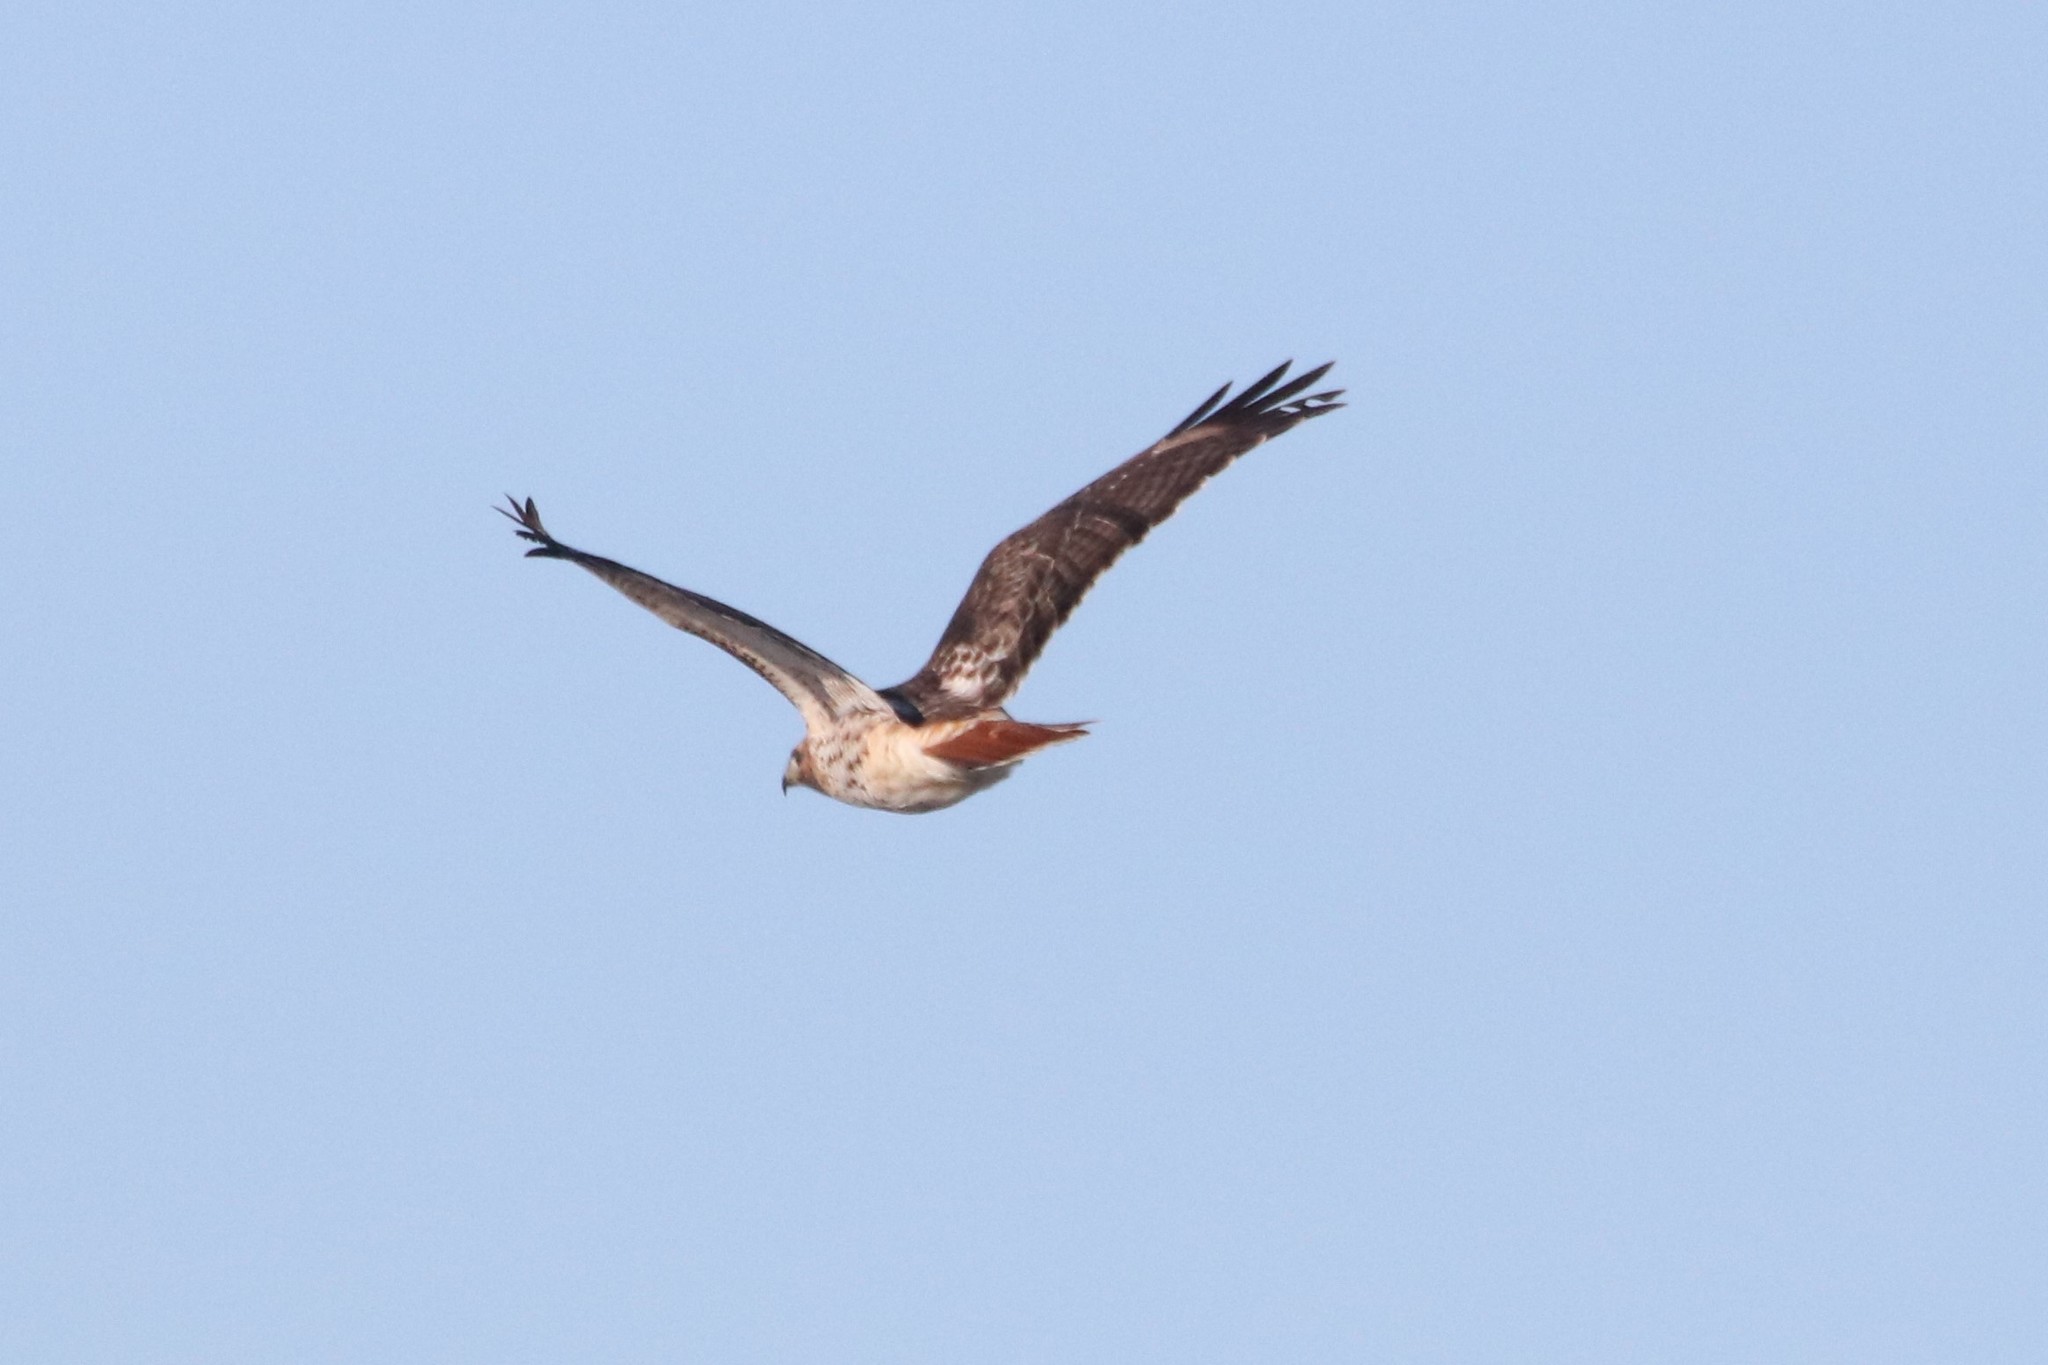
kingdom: Animalia
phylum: Chordata
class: Aves
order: Accipitriformes
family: Accipitridae
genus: Buteo
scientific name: Buteo jamaicensis
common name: Red-tailed hawk
